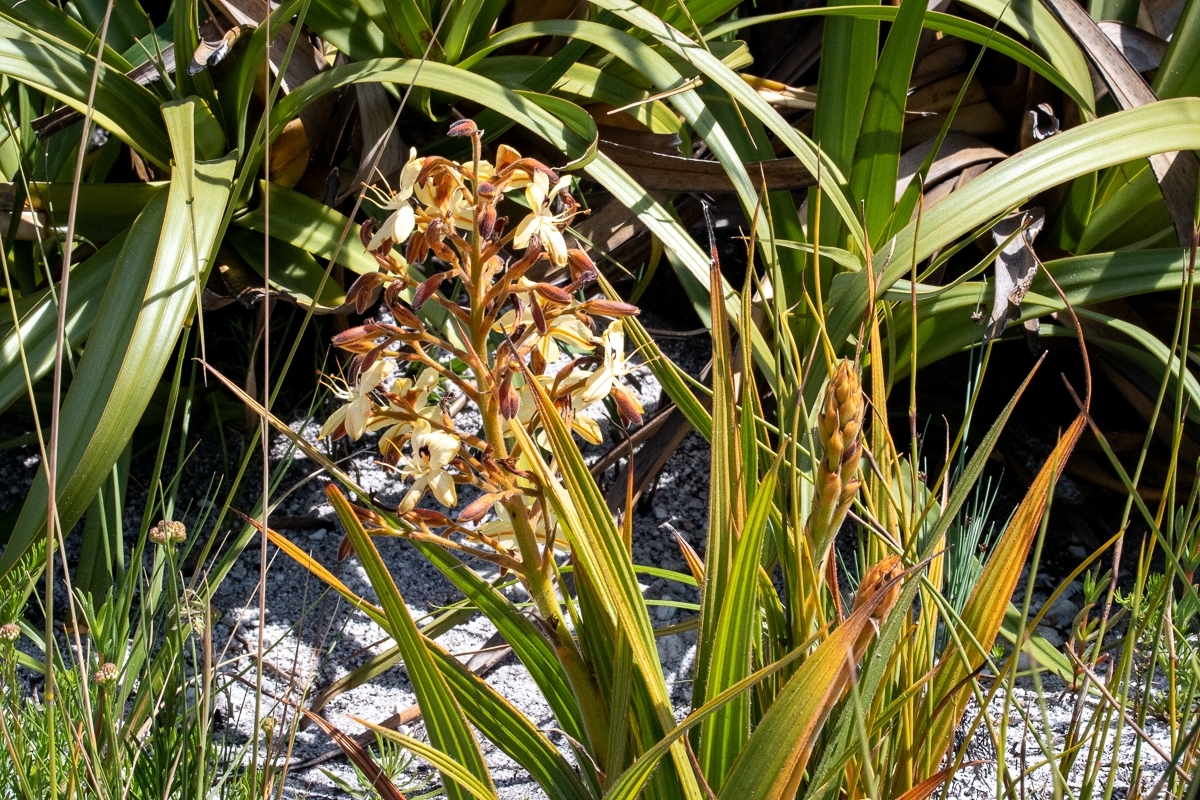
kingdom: Plantae
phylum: Tracheophyta
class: Liliopsida
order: Commelinales
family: Haemodoraceae
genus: Wachendorfia
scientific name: Wachendorfia paniculata
